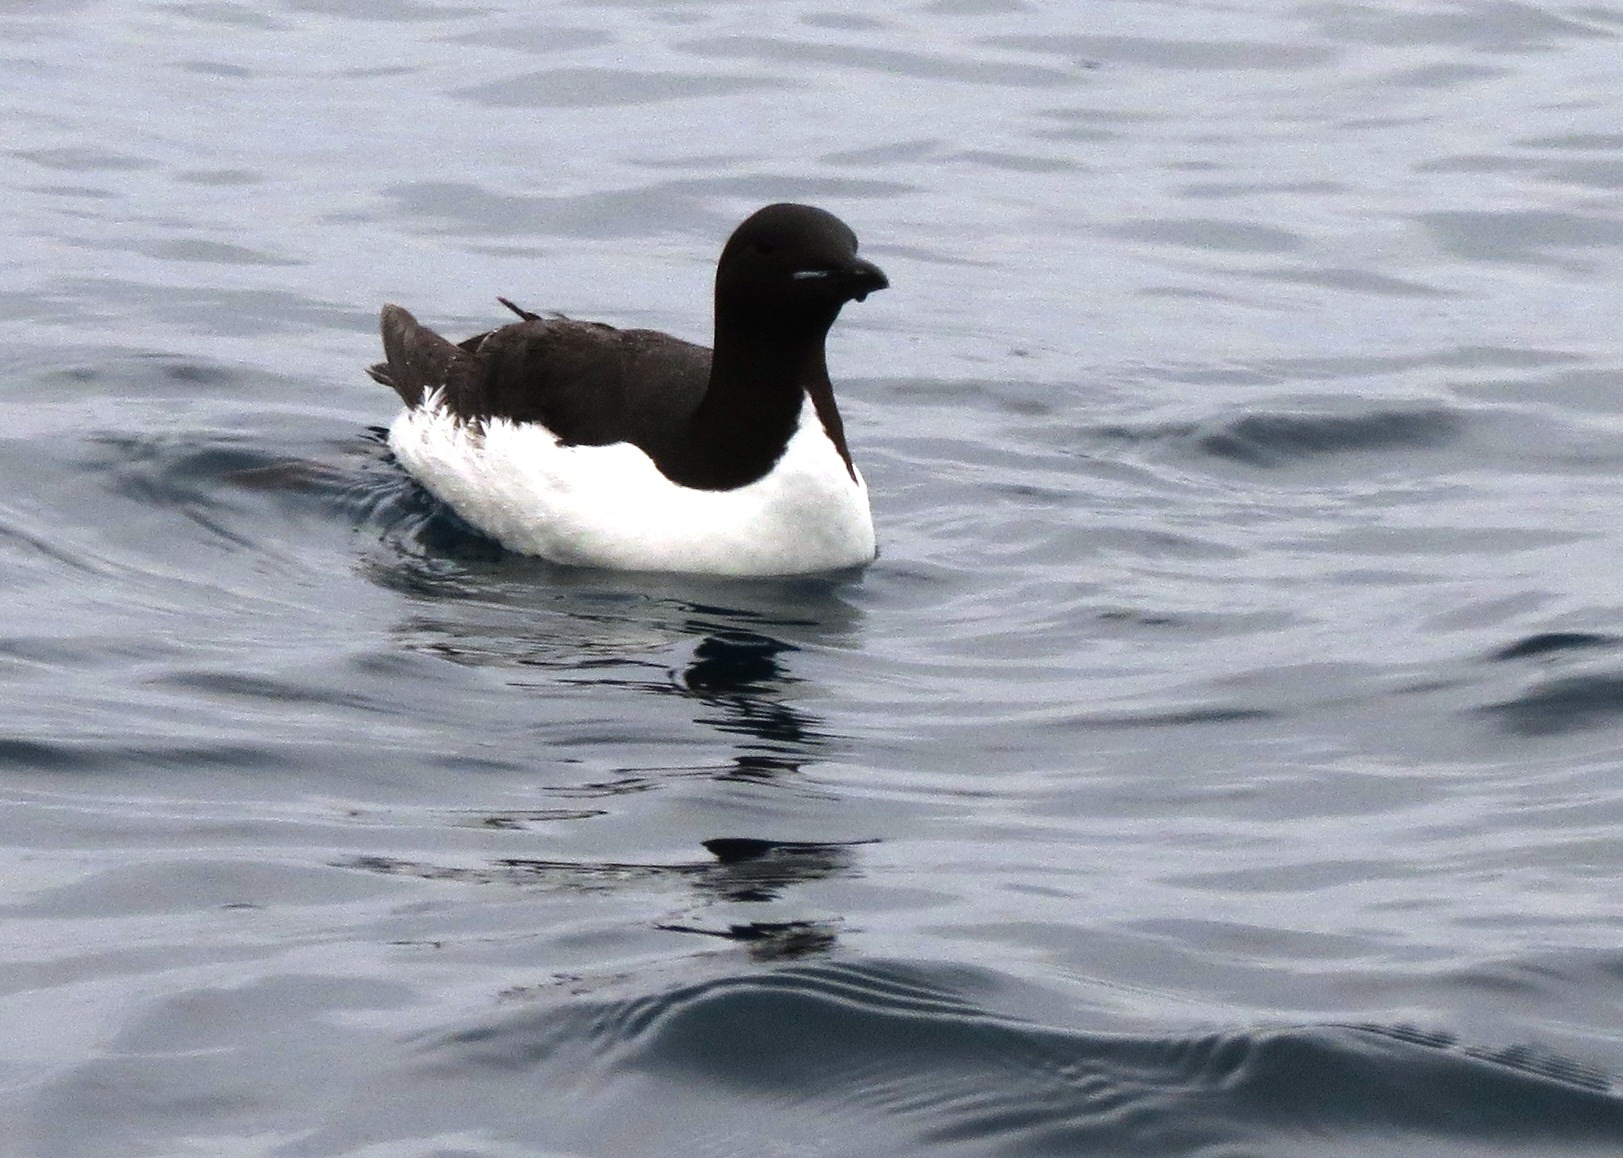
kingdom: Animalia
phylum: Chordata
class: Aves
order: Charadriiformes
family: Alcidae
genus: Uria
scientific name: Uria lomvia
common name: Thick-billed murre
